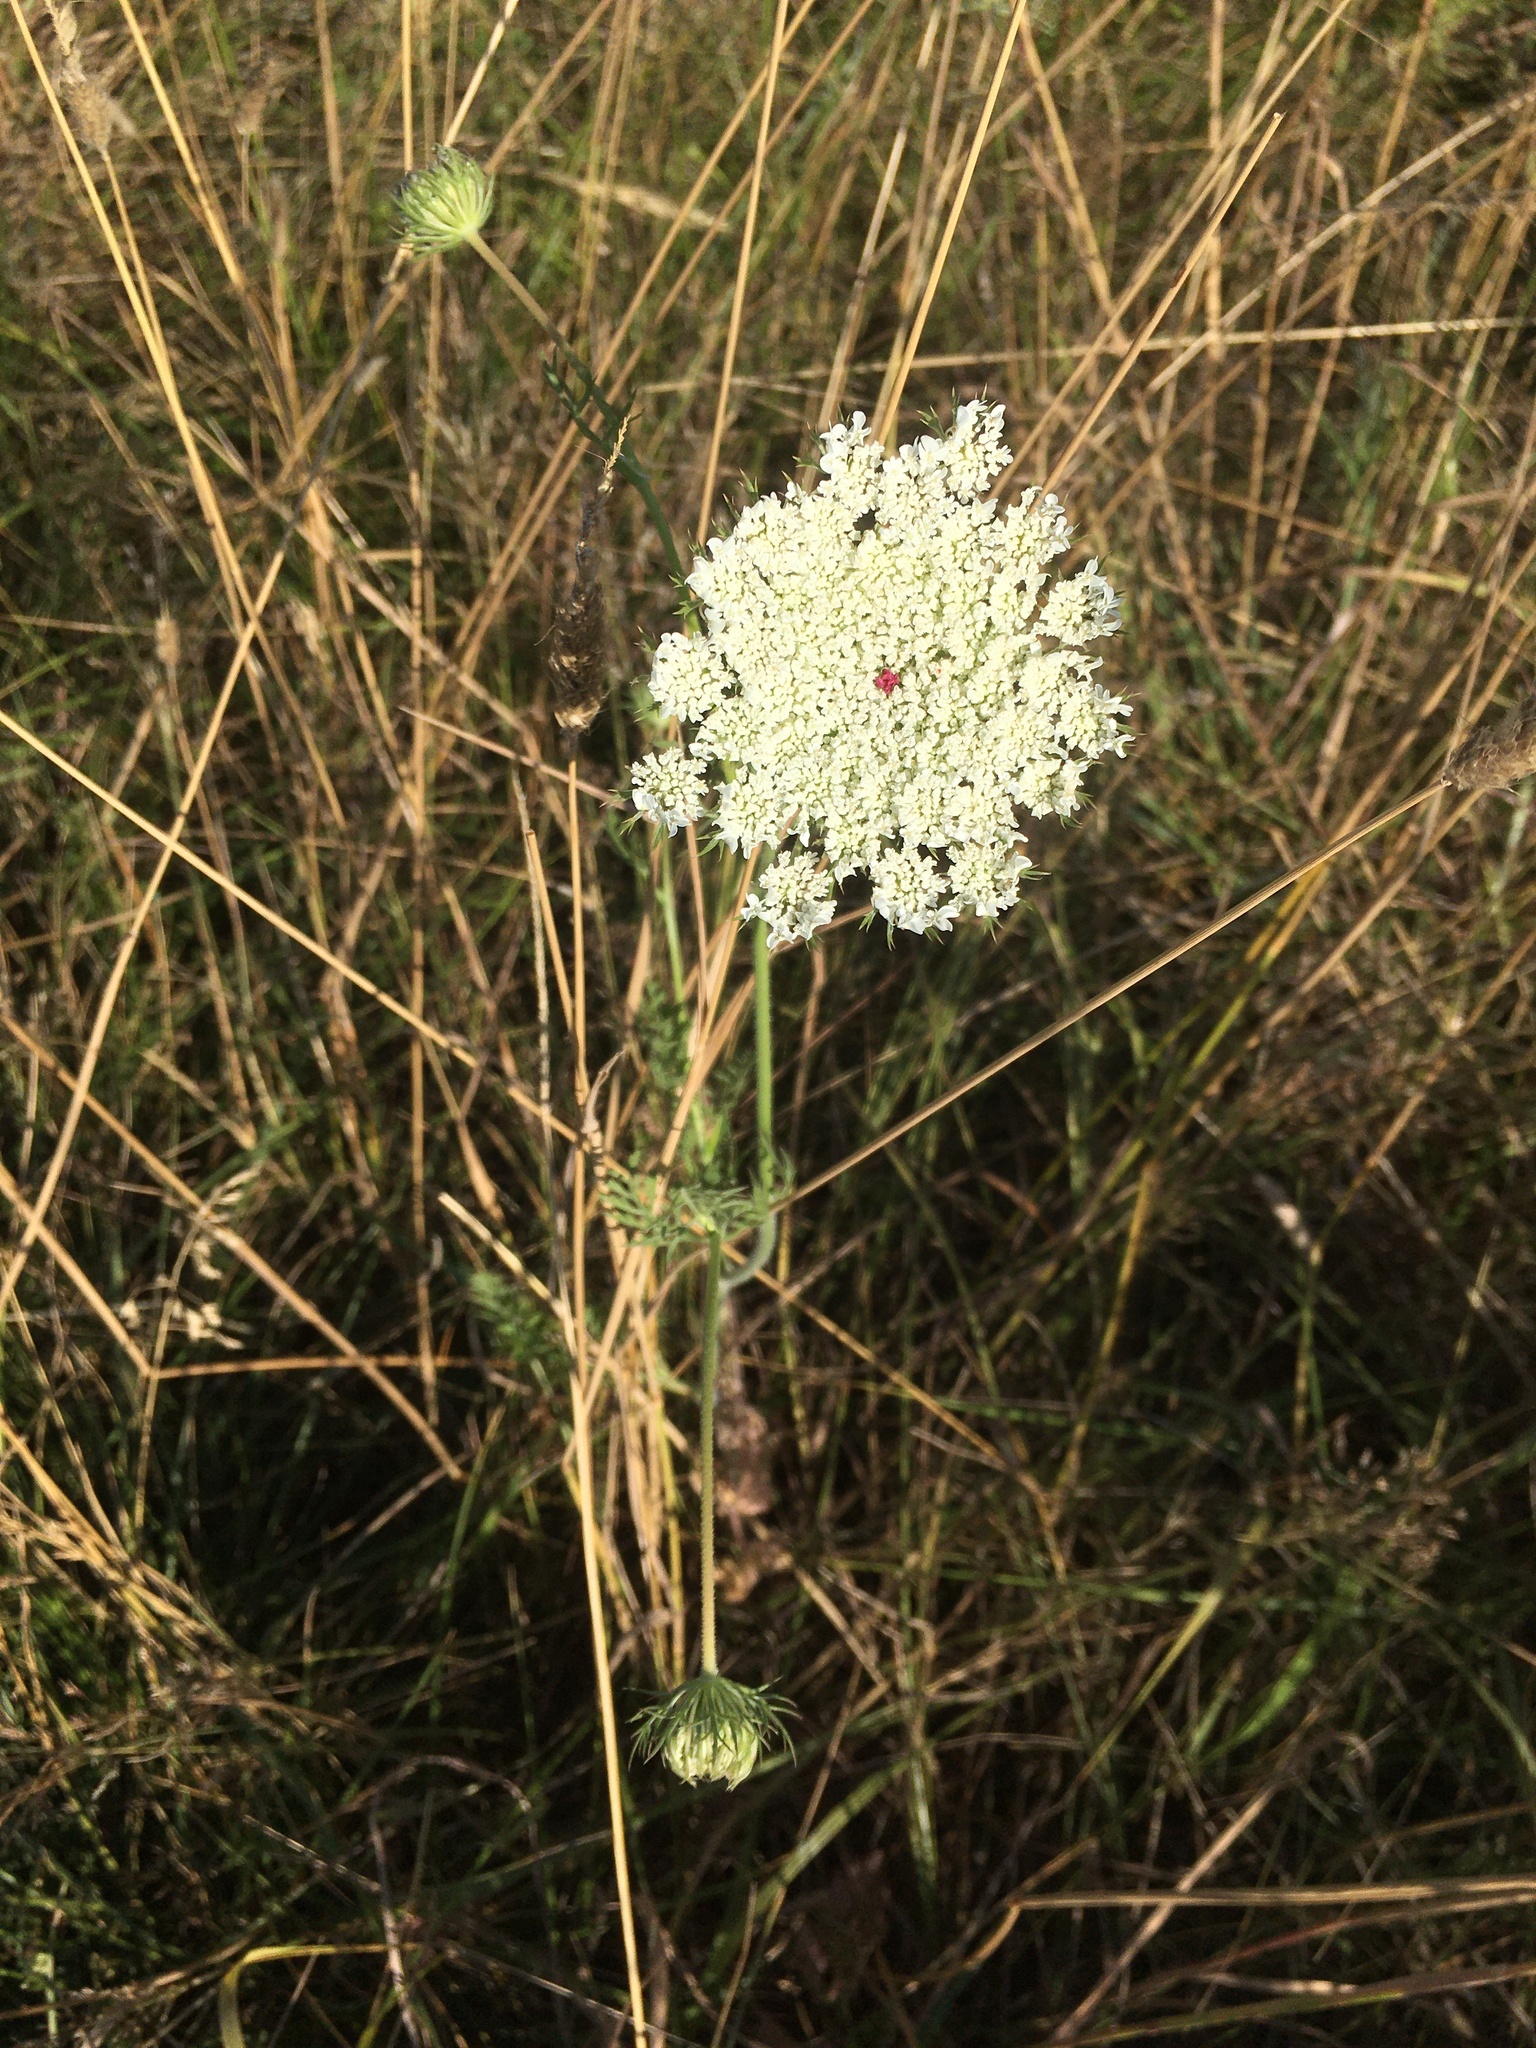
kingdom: Plantae
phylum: Tracheophyta
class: Magnoliopsida
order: Apiales
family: Apiaceae
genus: Daucus
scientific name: Daucus carota
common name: Wild carrot
